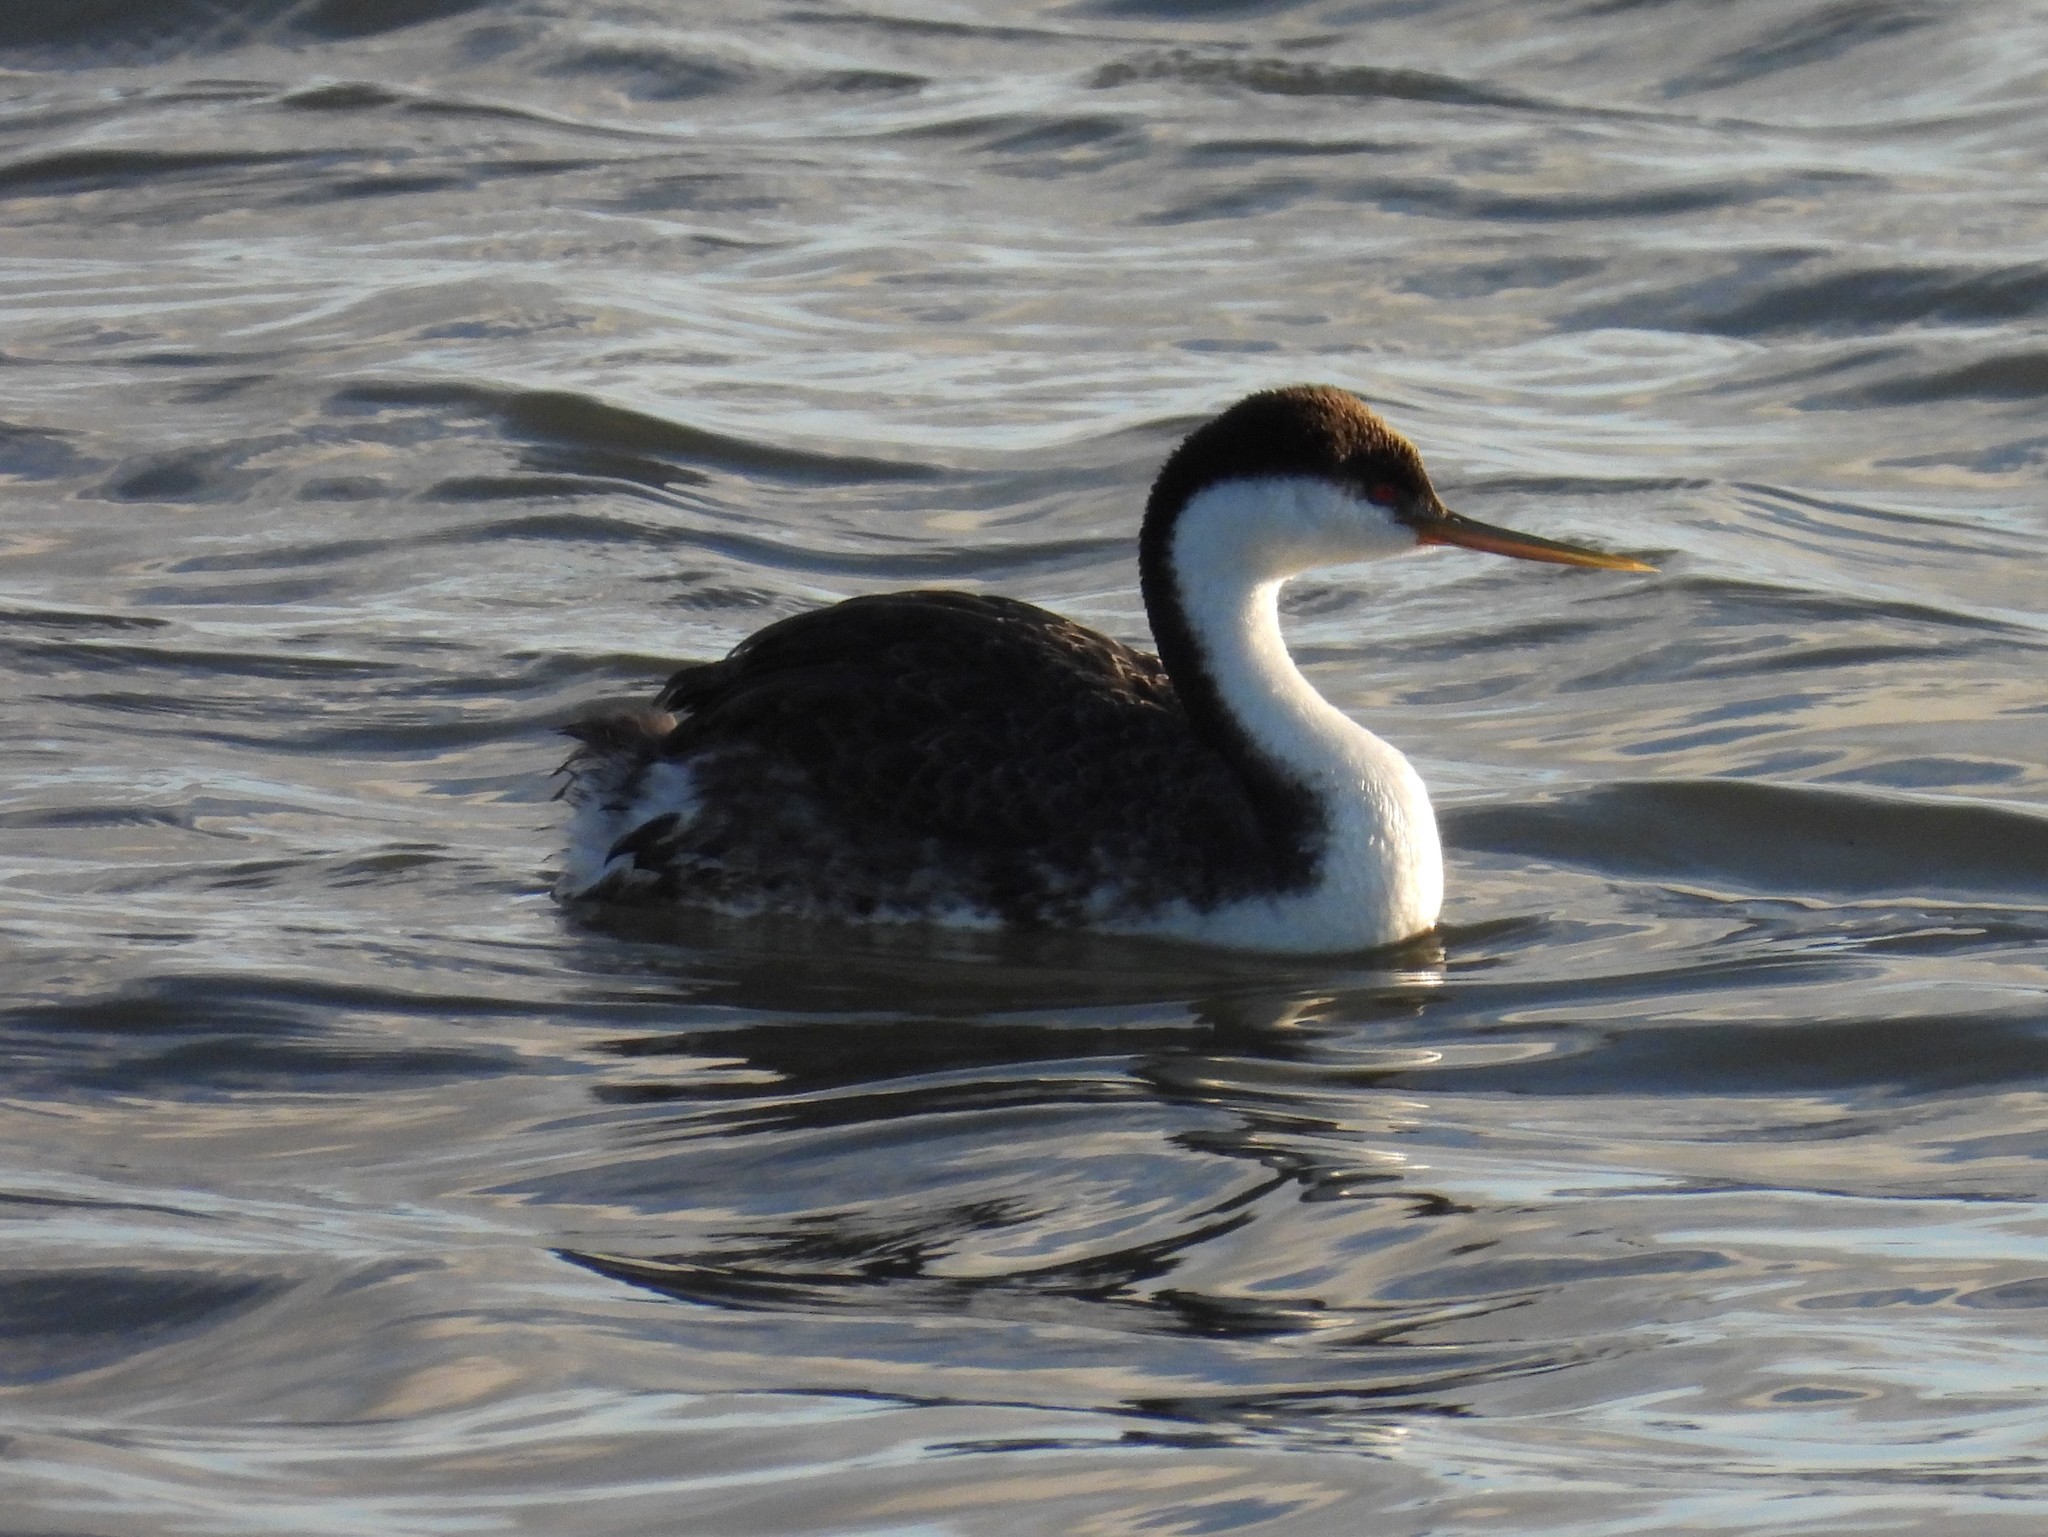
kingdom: Animalia
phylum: Chordata
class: Aves
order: Podicipediformes
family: Podicipedidae
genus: Aechmophorus
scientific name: Aechmophorus occidentalis
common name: Western grebe
